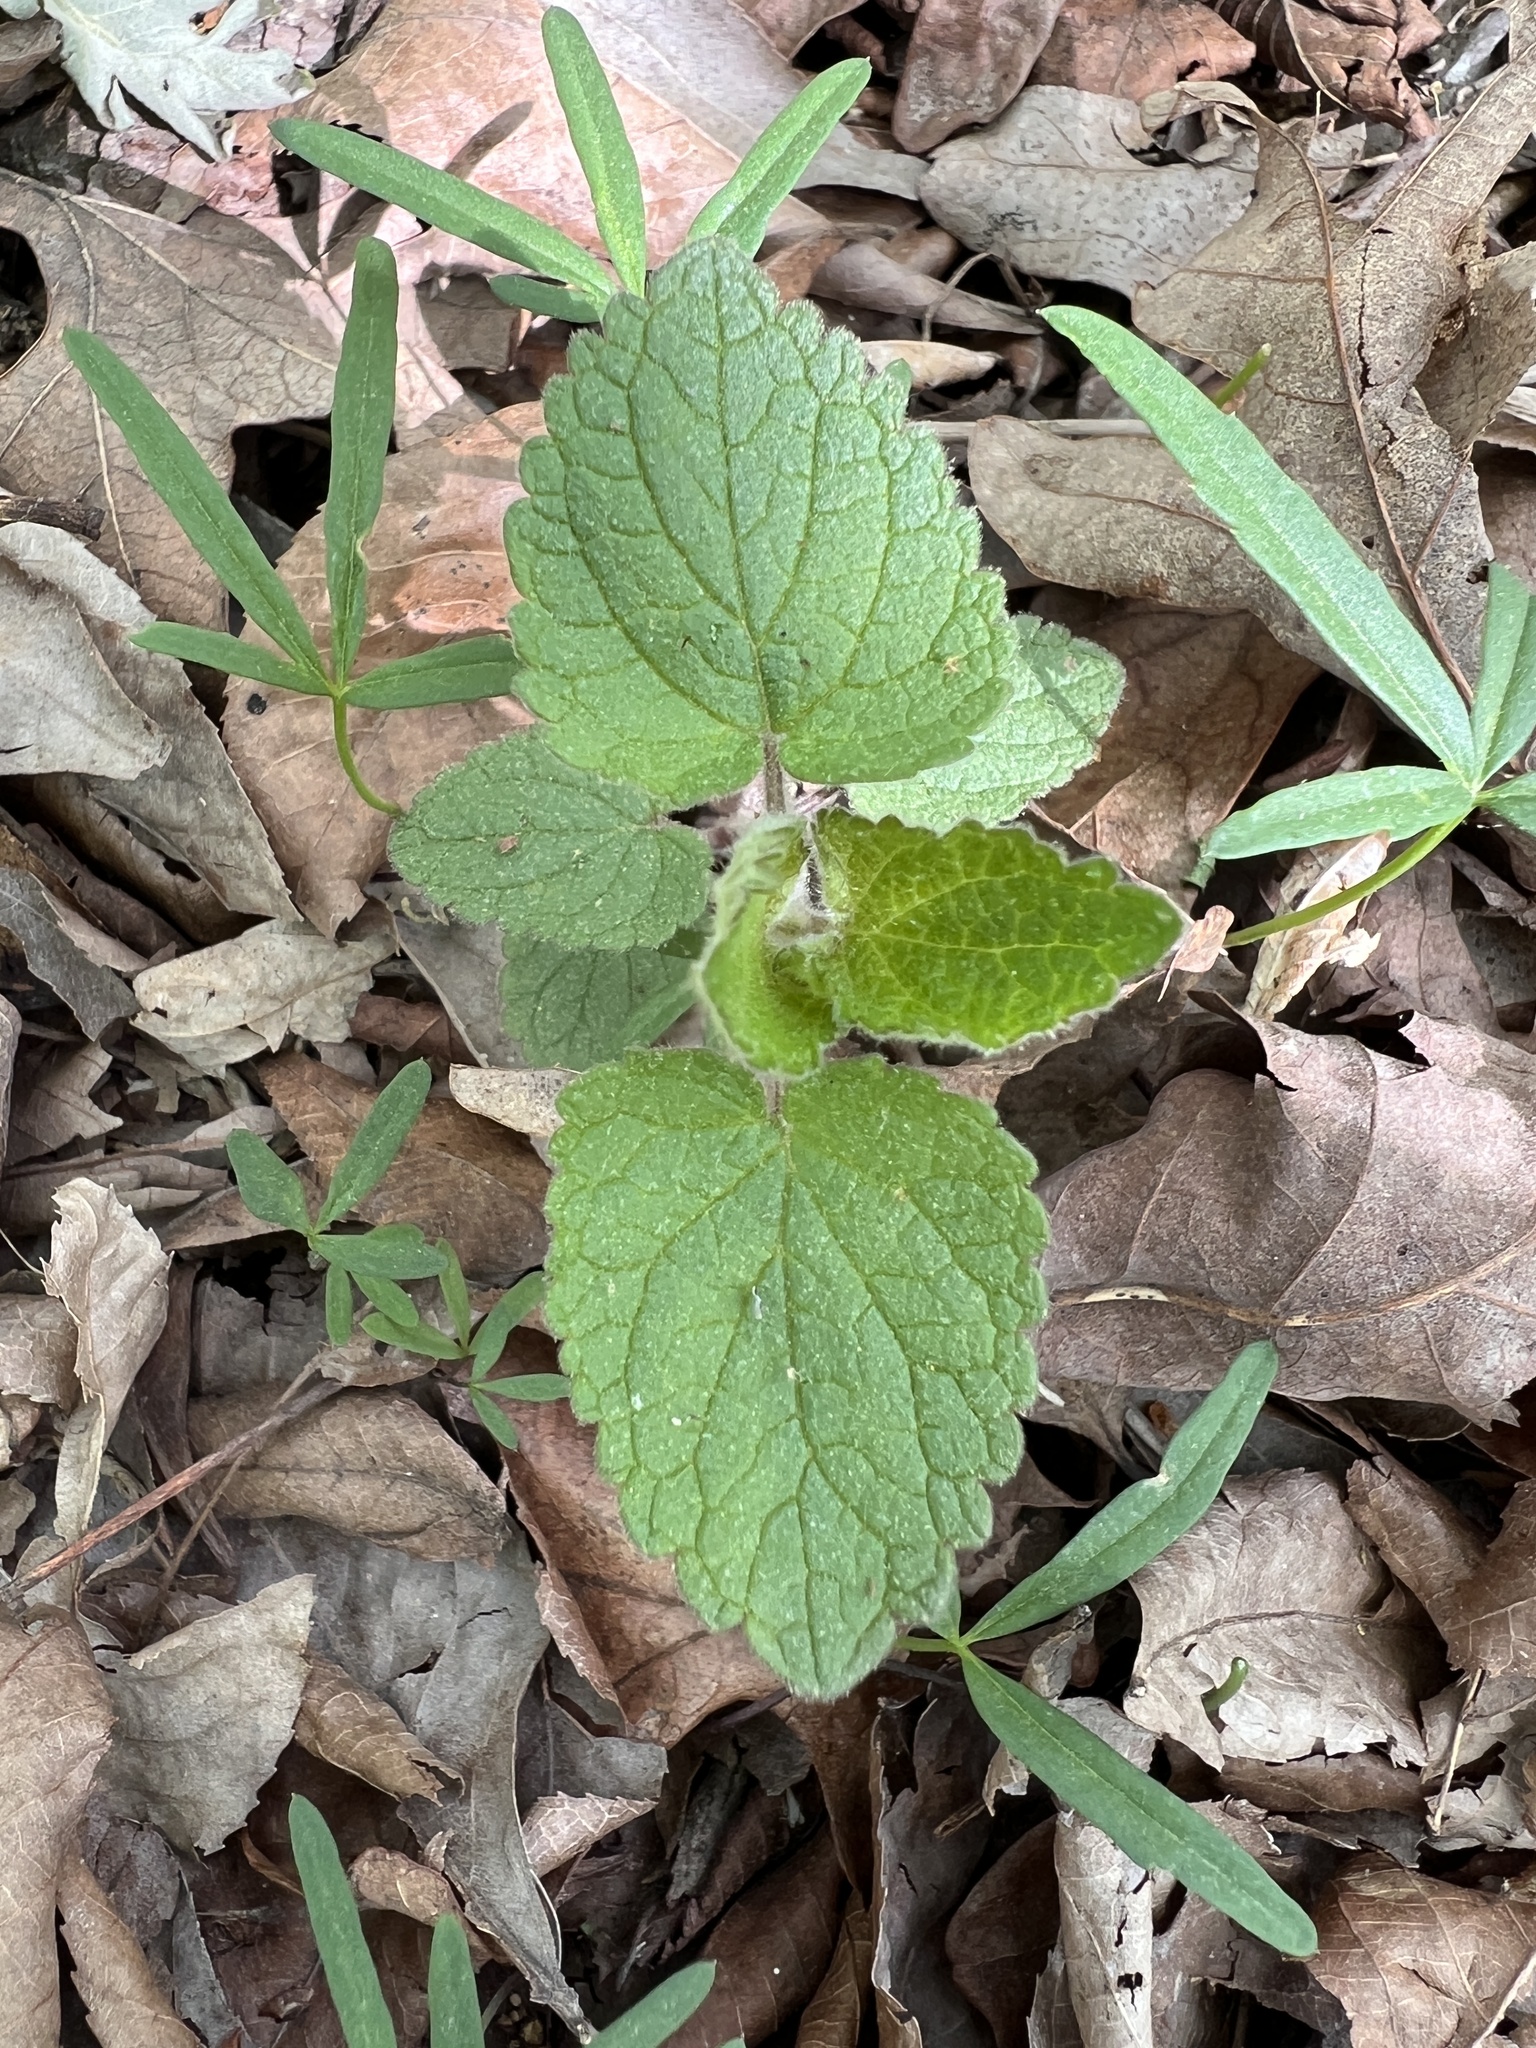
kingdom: Plantae
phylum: Tracheophyta
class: Magnoliopsida
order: Lamiales
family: Lamiaceae
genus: Scutellaria
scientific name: Scutellaria ovata
